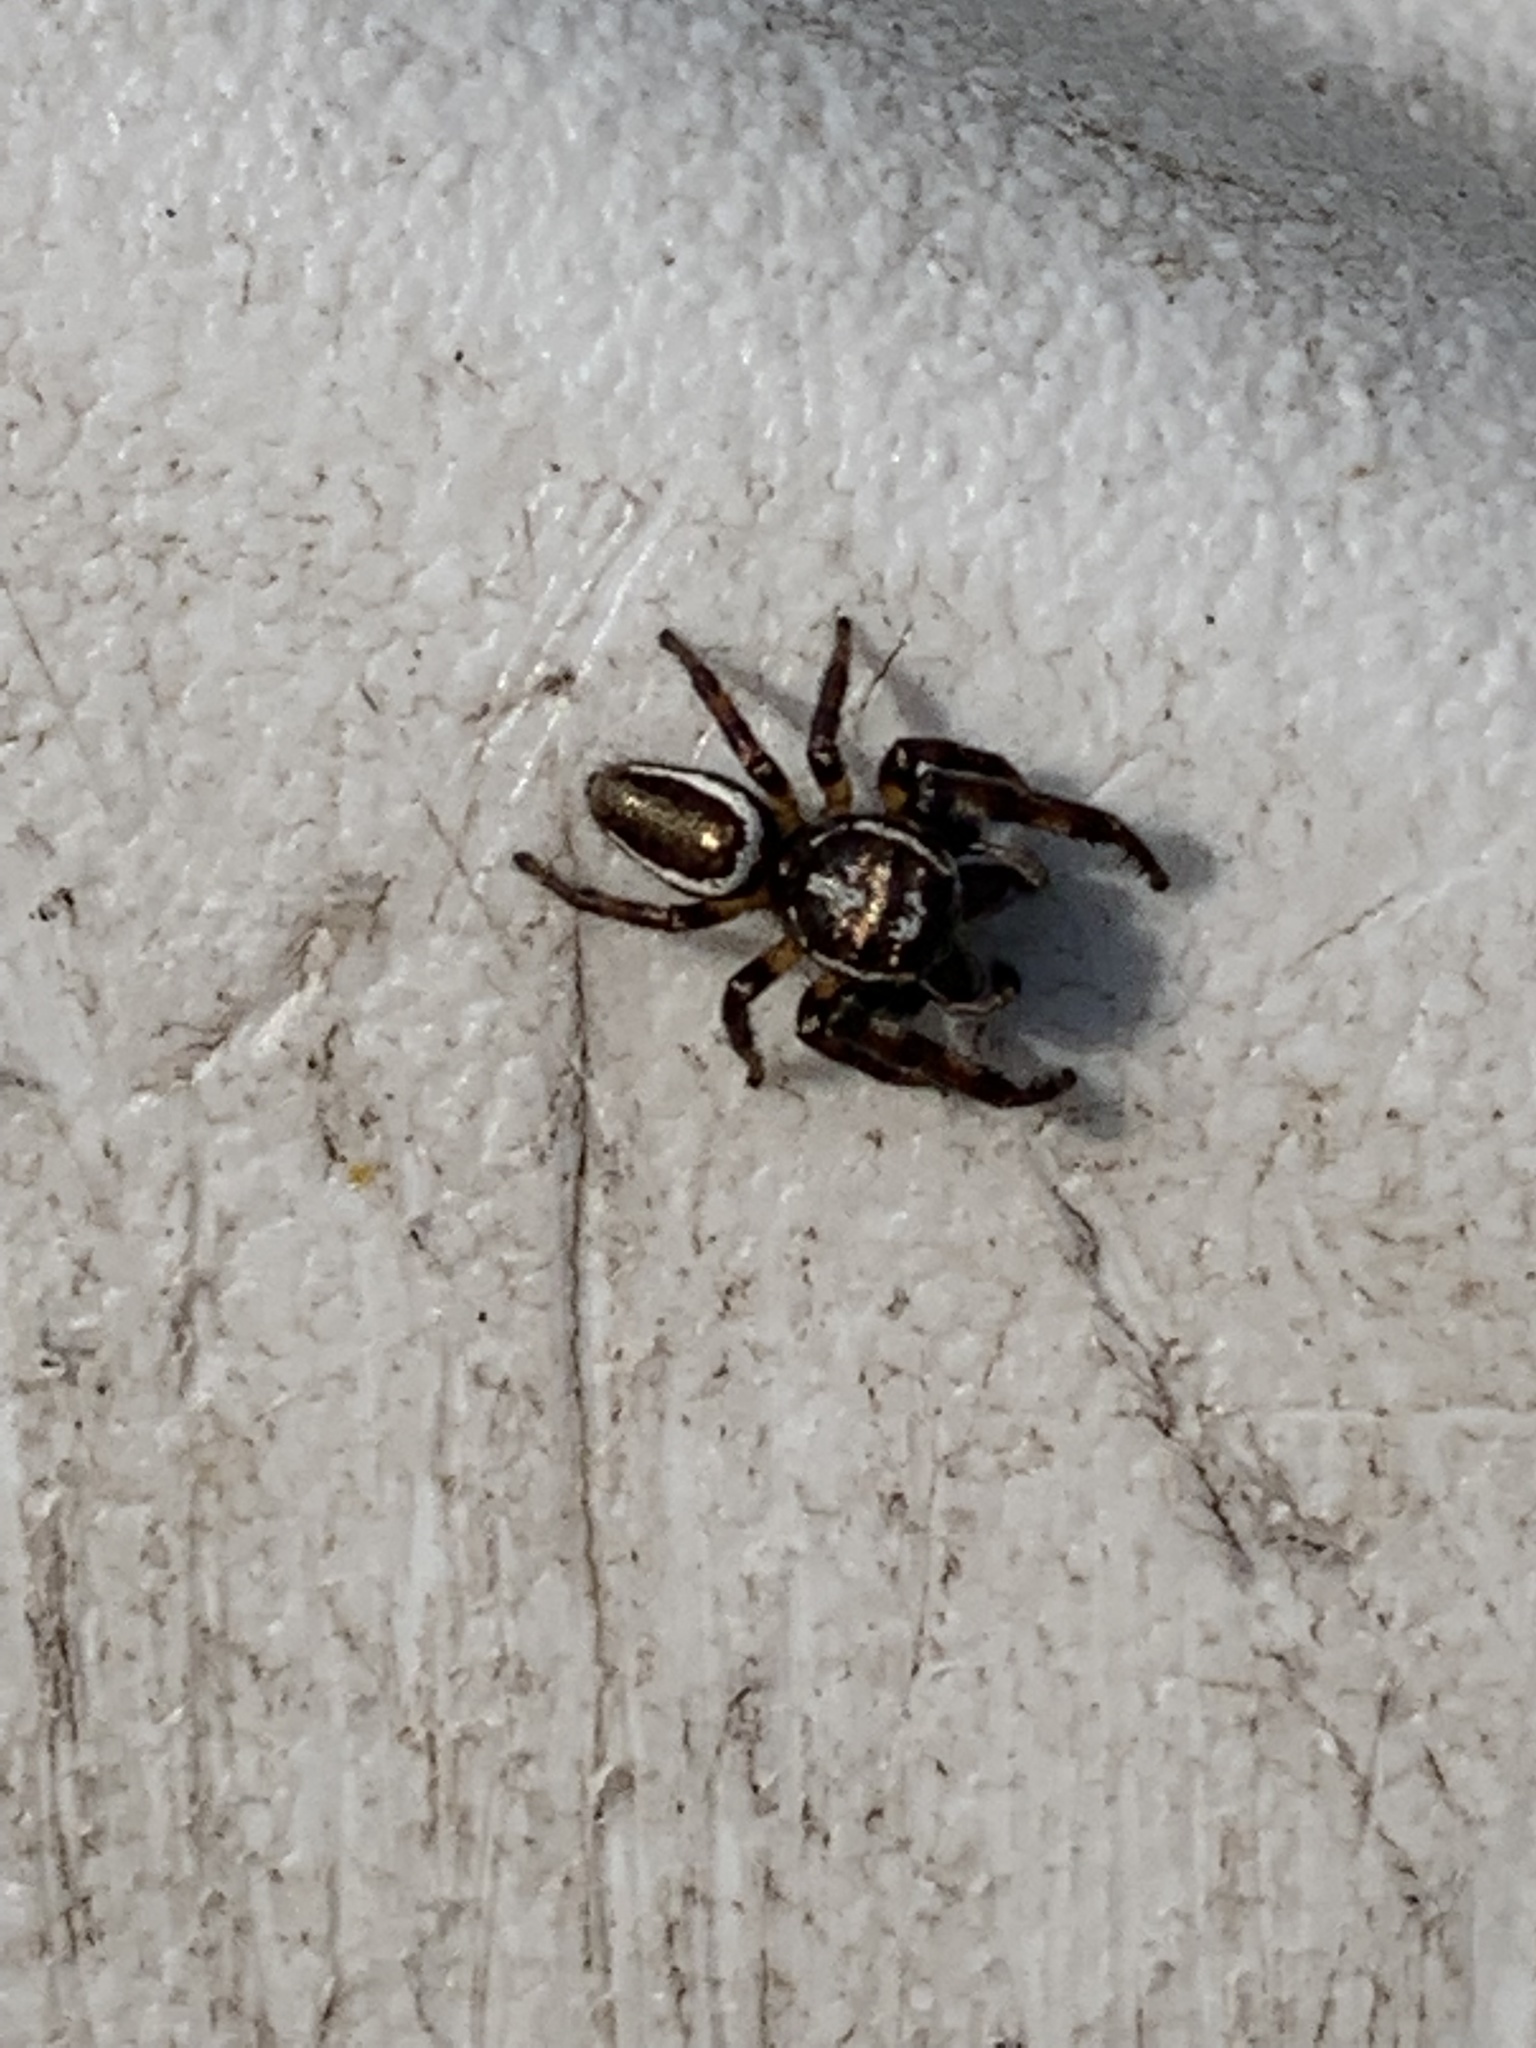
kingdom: Animalia
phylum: Arthropoda
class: Arachnida
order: Araneae
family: Salticidae
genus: Eris
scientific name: Eris militaris
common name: Bronze jumper
